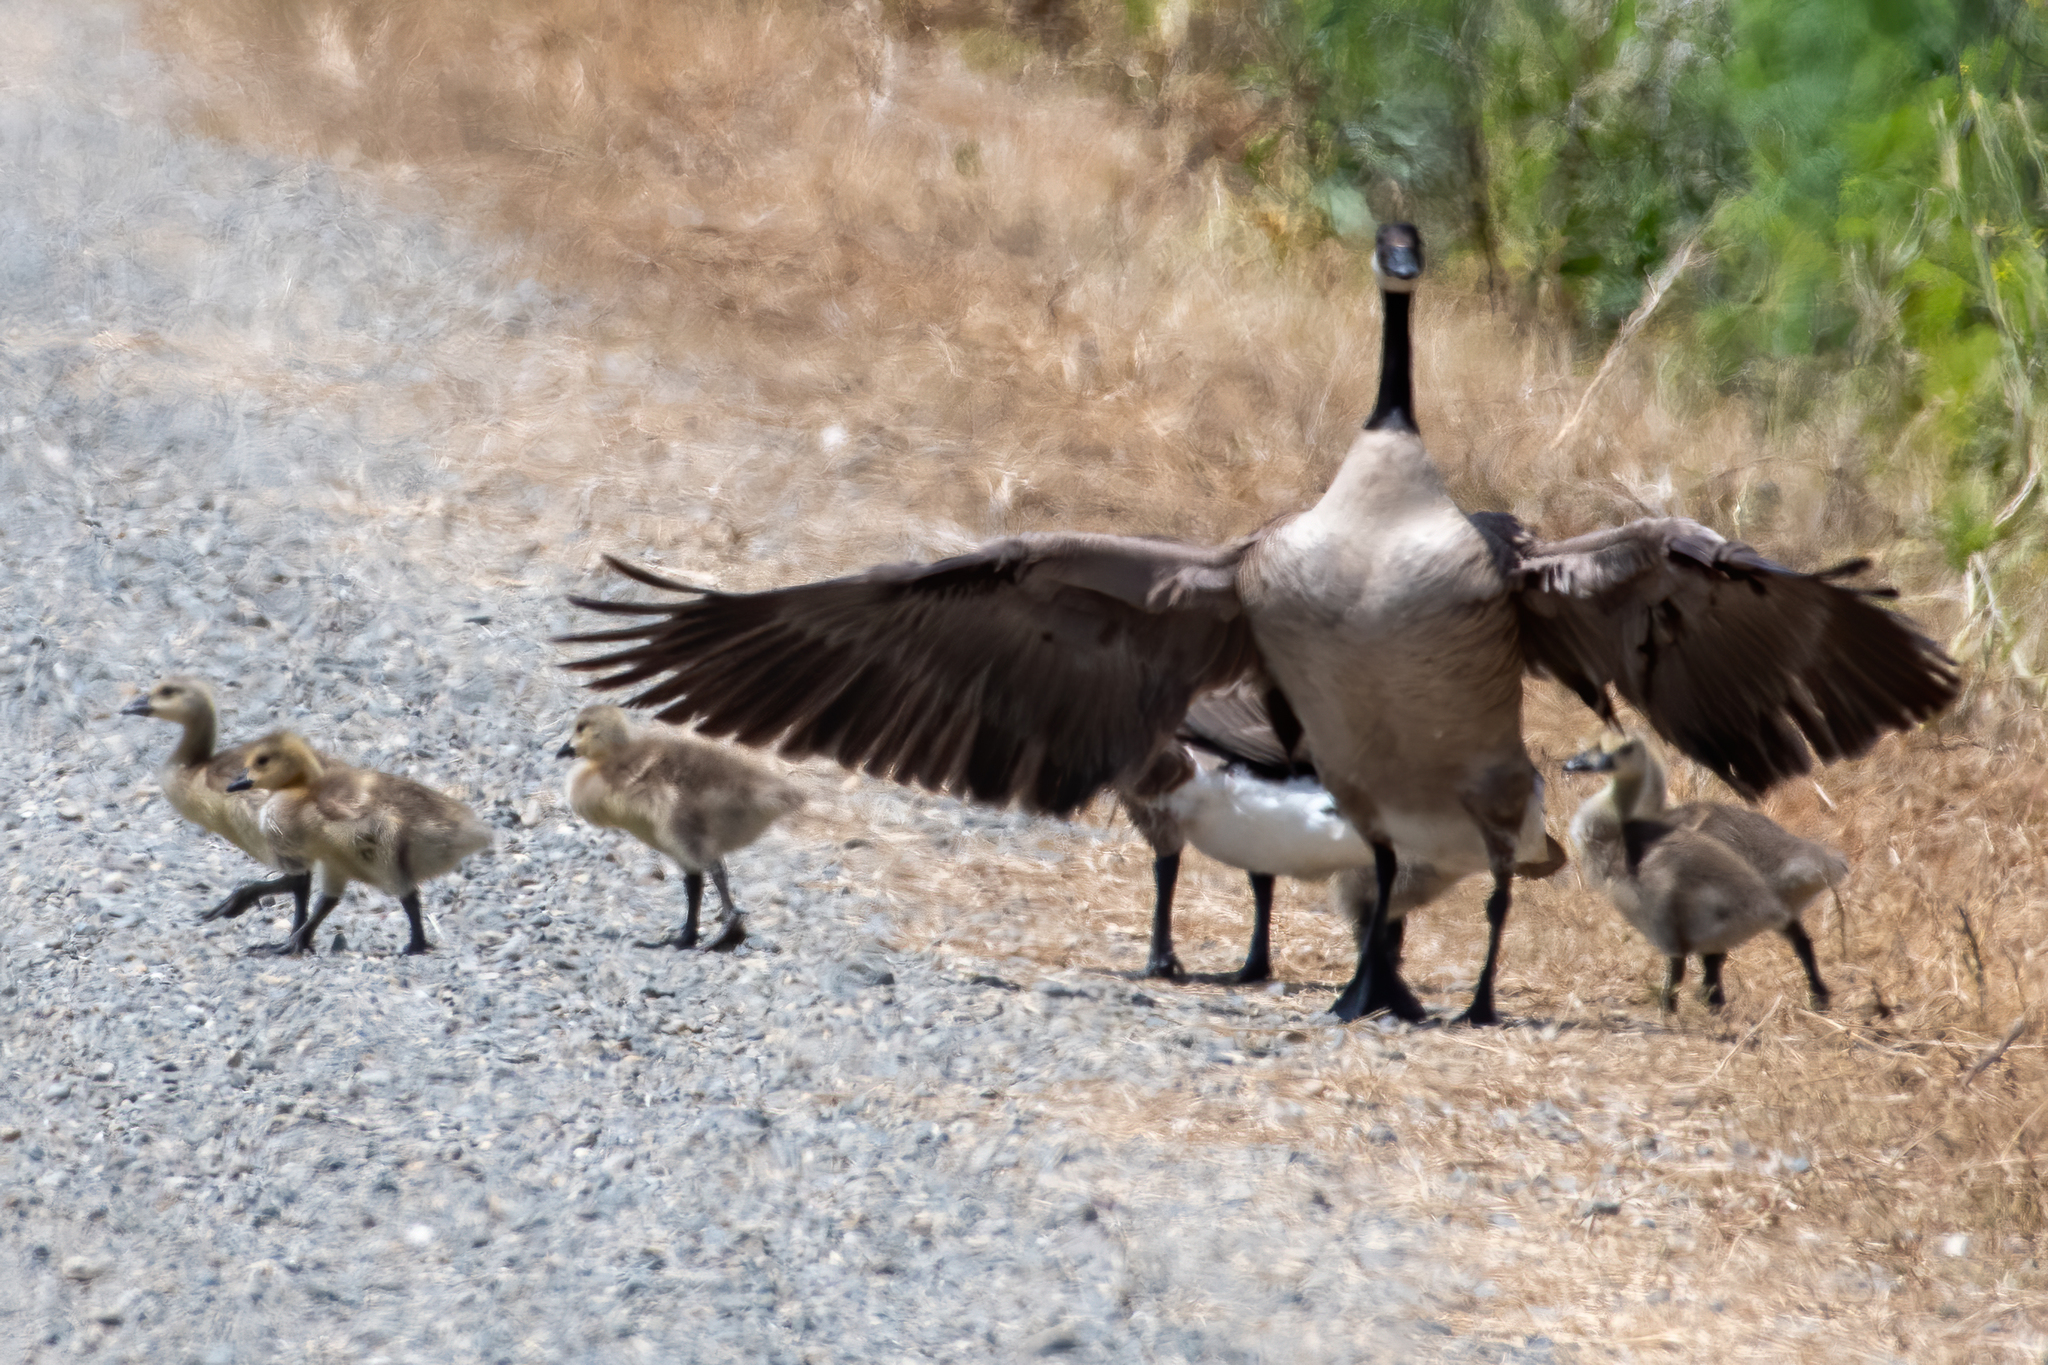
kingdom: Animalia
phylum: Chordata
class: Aves
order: Anseriformes
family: Anatidae
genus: Branta
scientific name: Branta canadensis
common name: Canada goose
